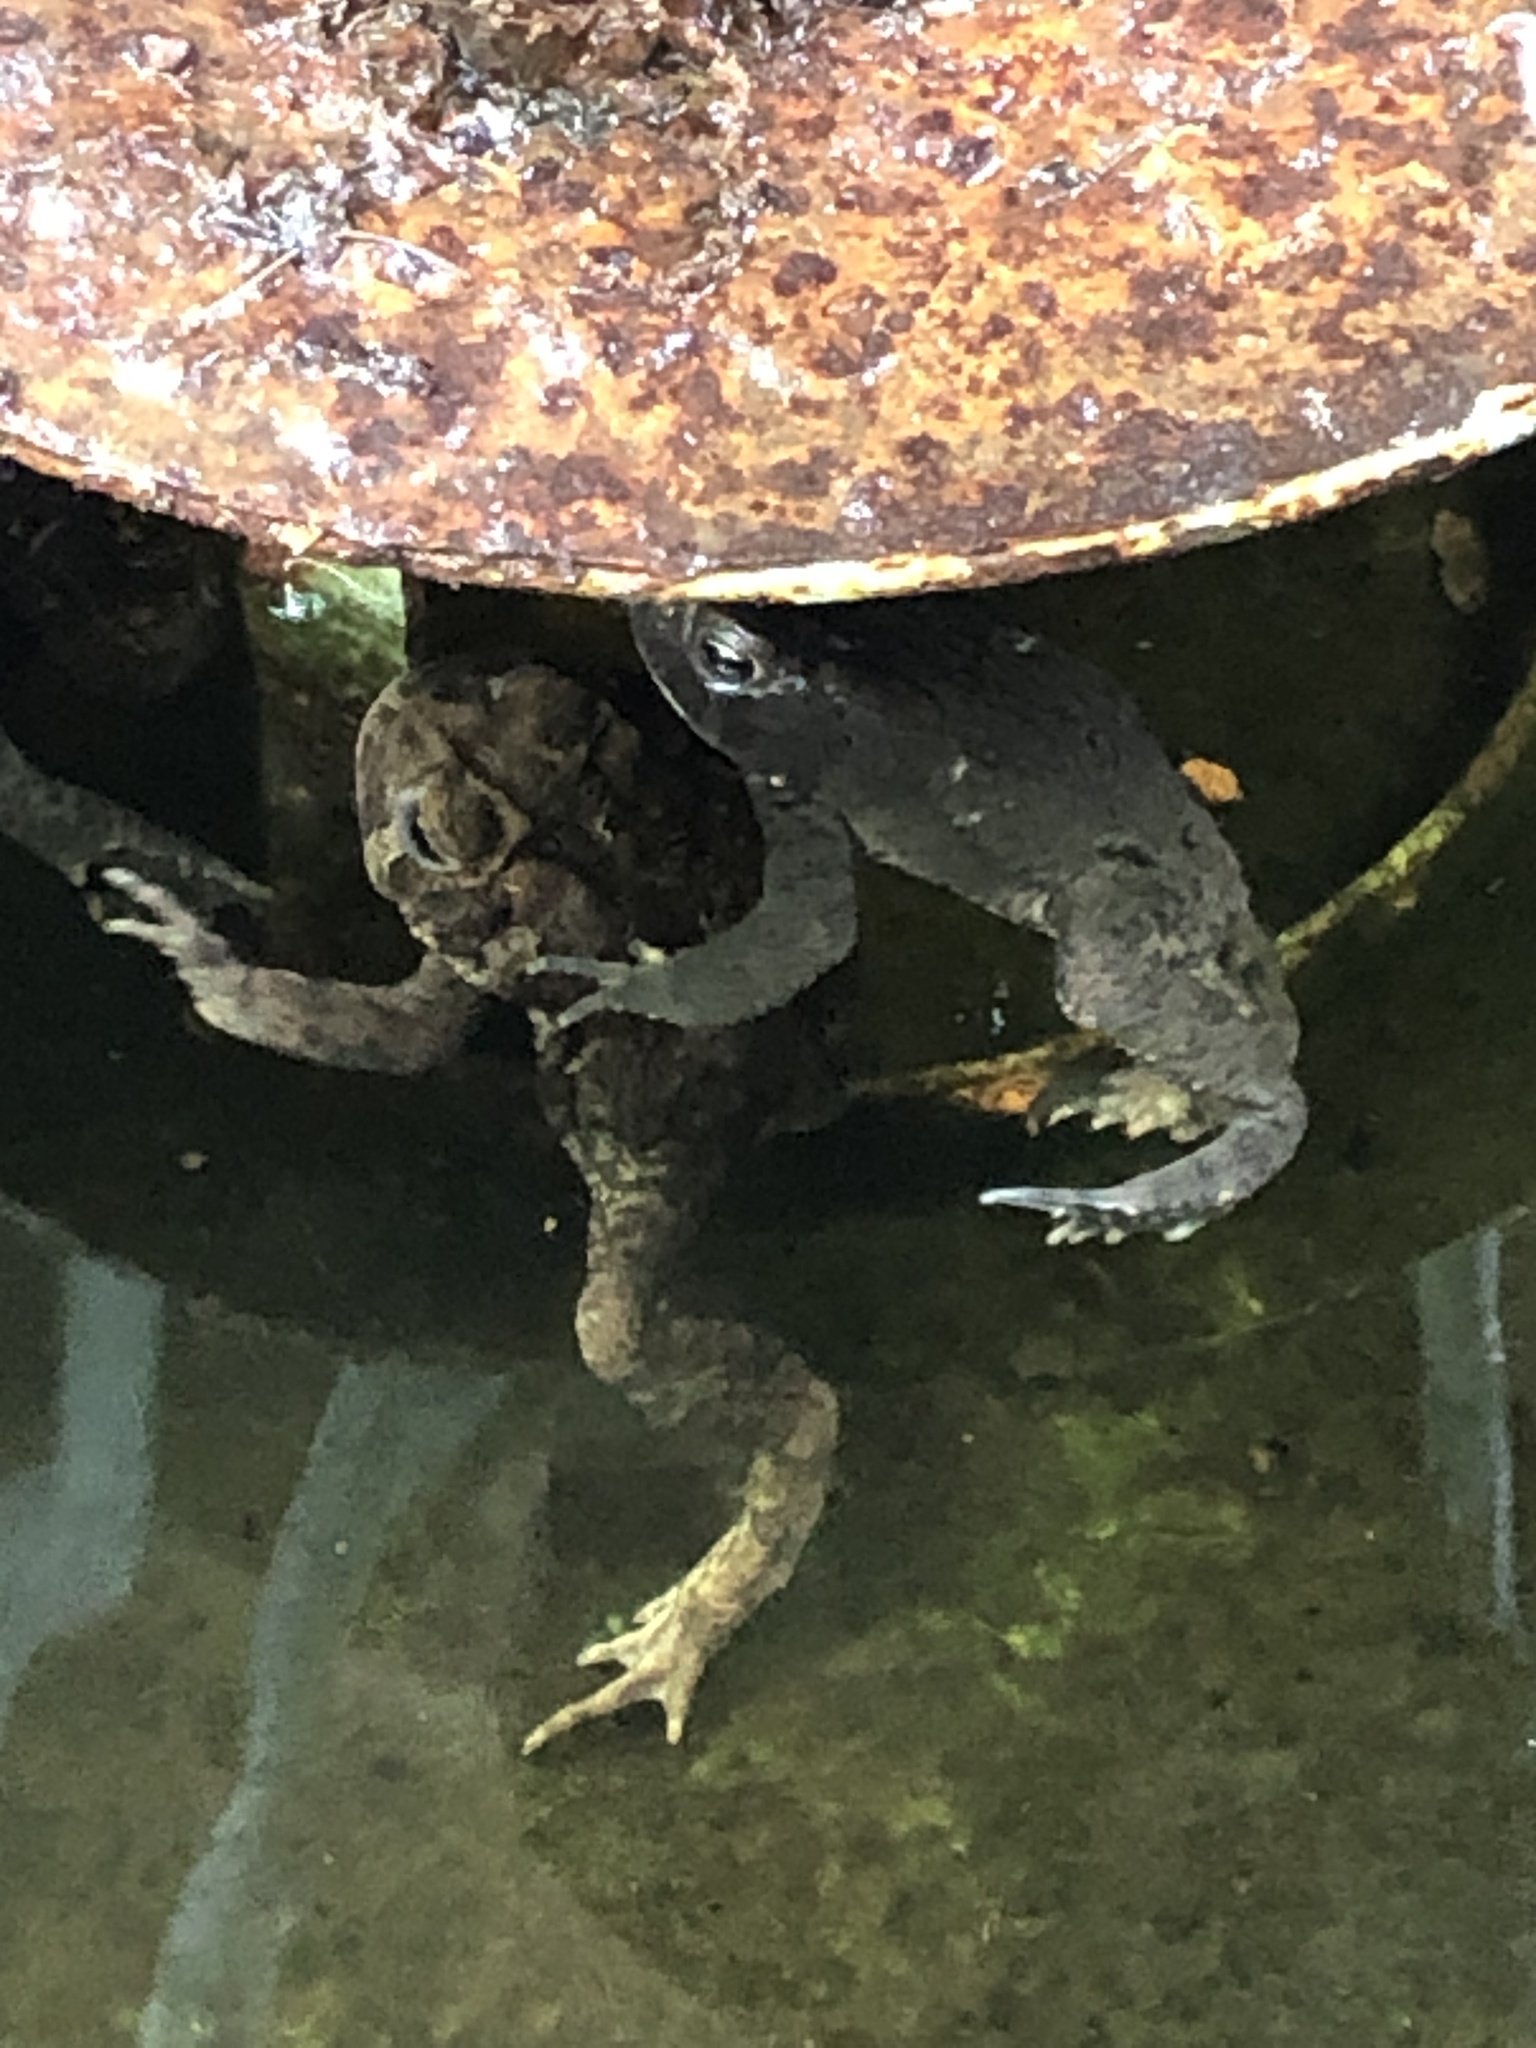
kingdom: Animalia
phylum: Chordata
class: Amphibia
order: Anura
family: Bufonidae
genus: Anaxyrus
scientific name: Anaxyrus americanus
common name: American toad
